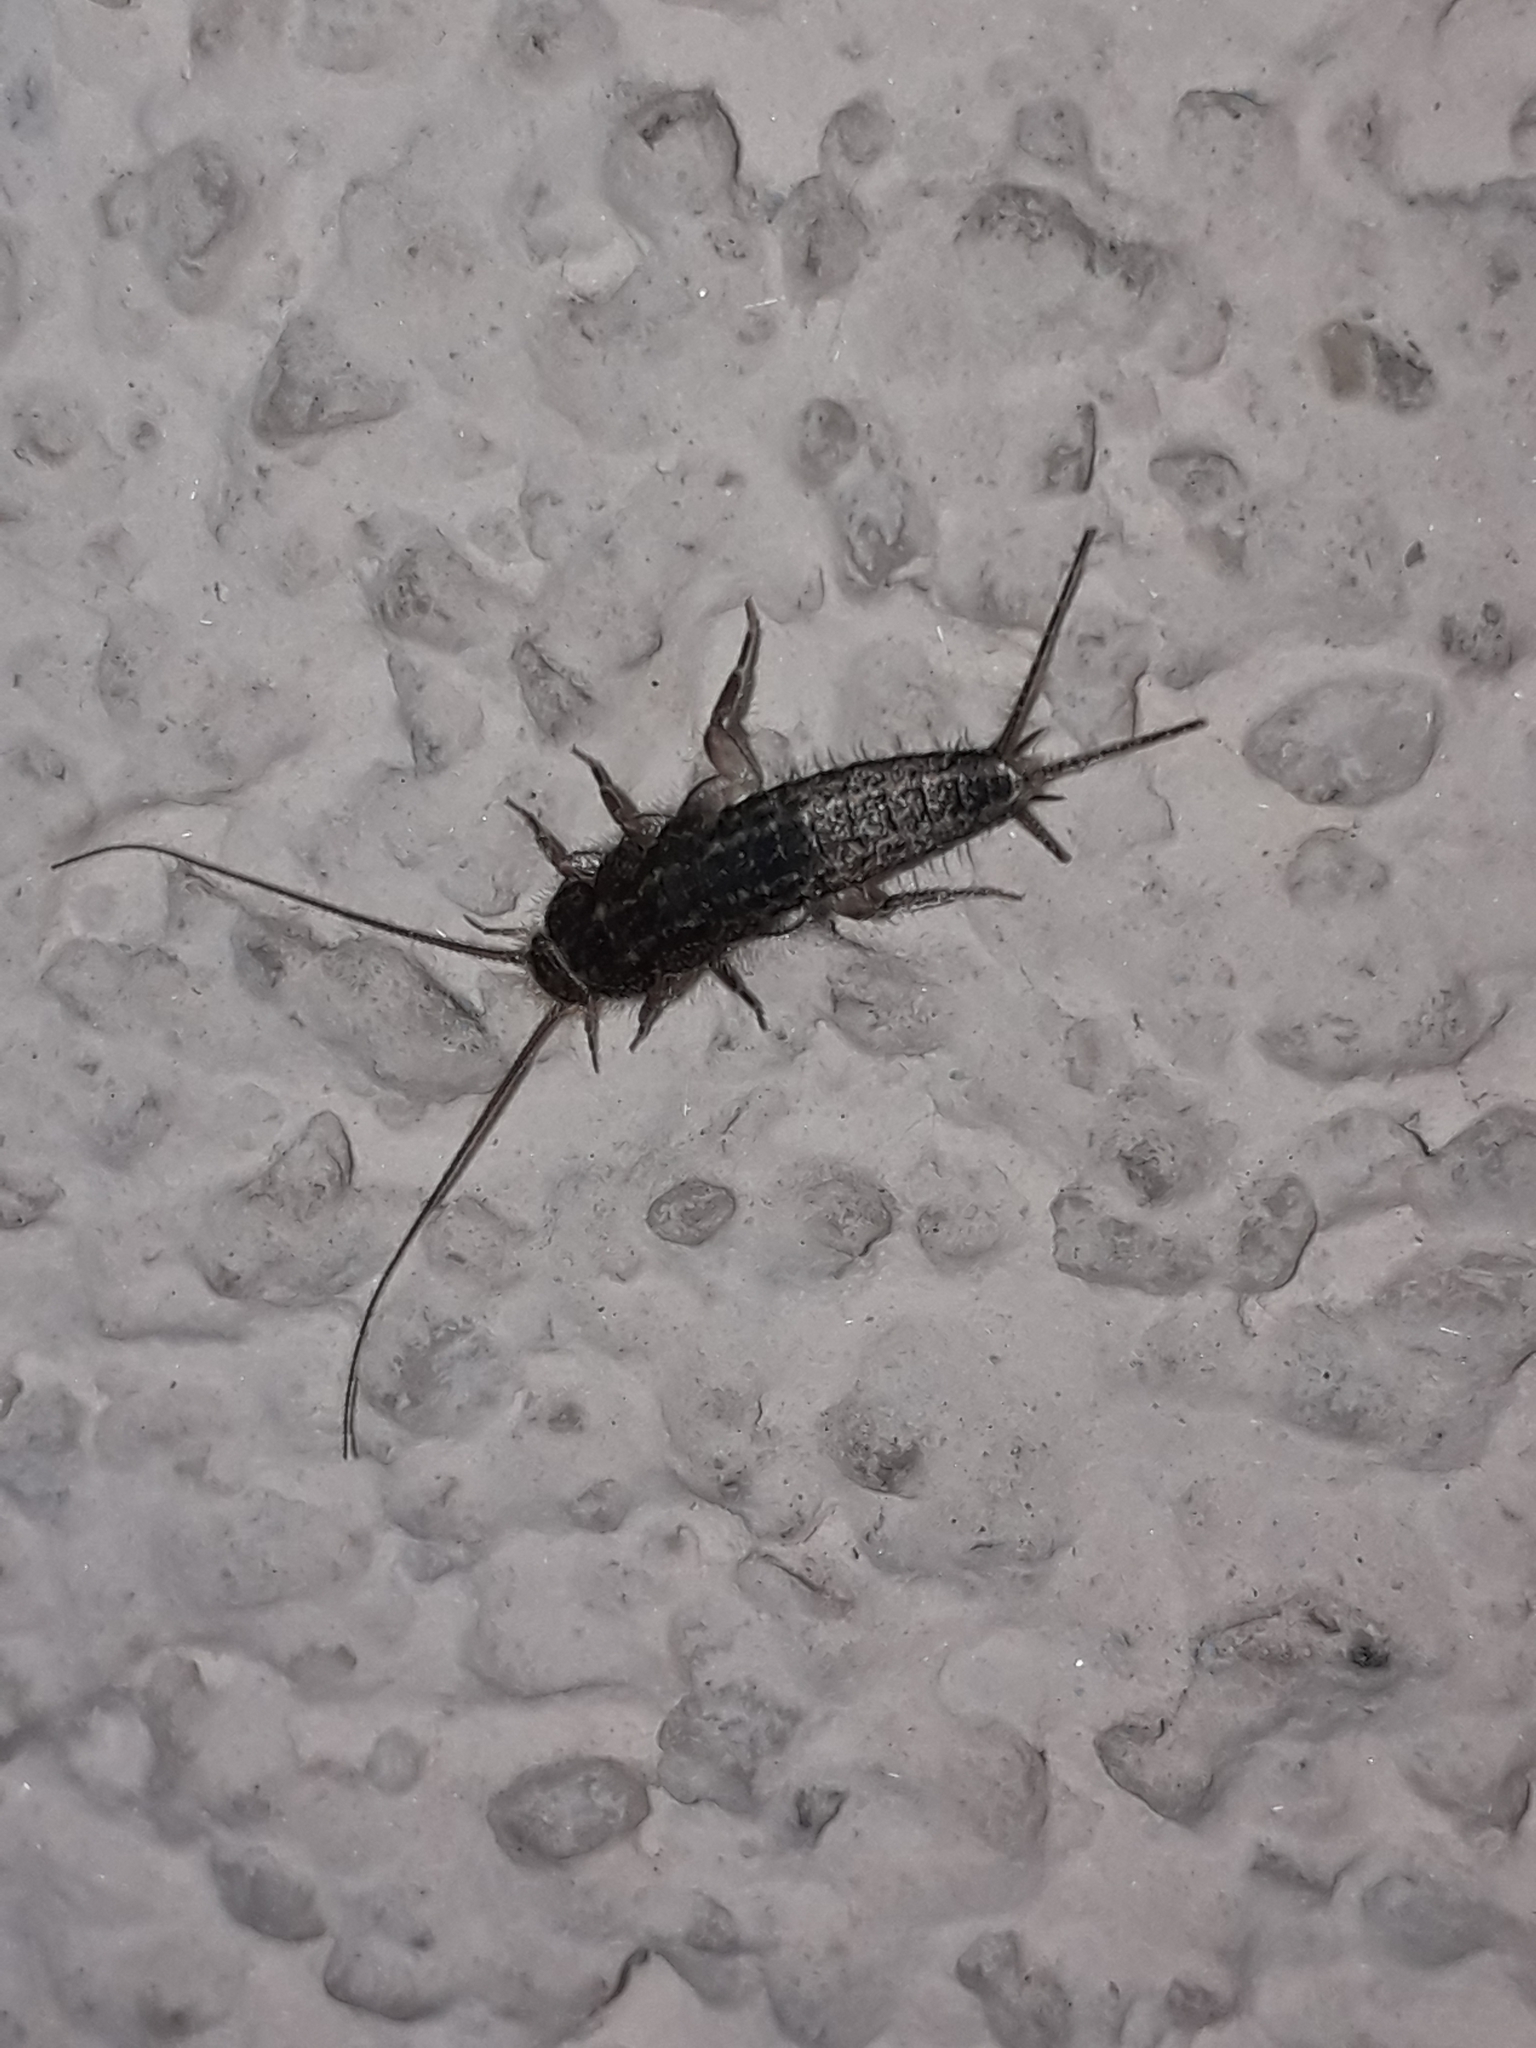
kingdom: Animalia
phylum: Arthropoda
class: Insecta
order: Zygentoma
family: Lepismatidae
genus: Ctenolepisma
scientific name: Ctenolepisma lineata
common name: Four-lined silverfish
